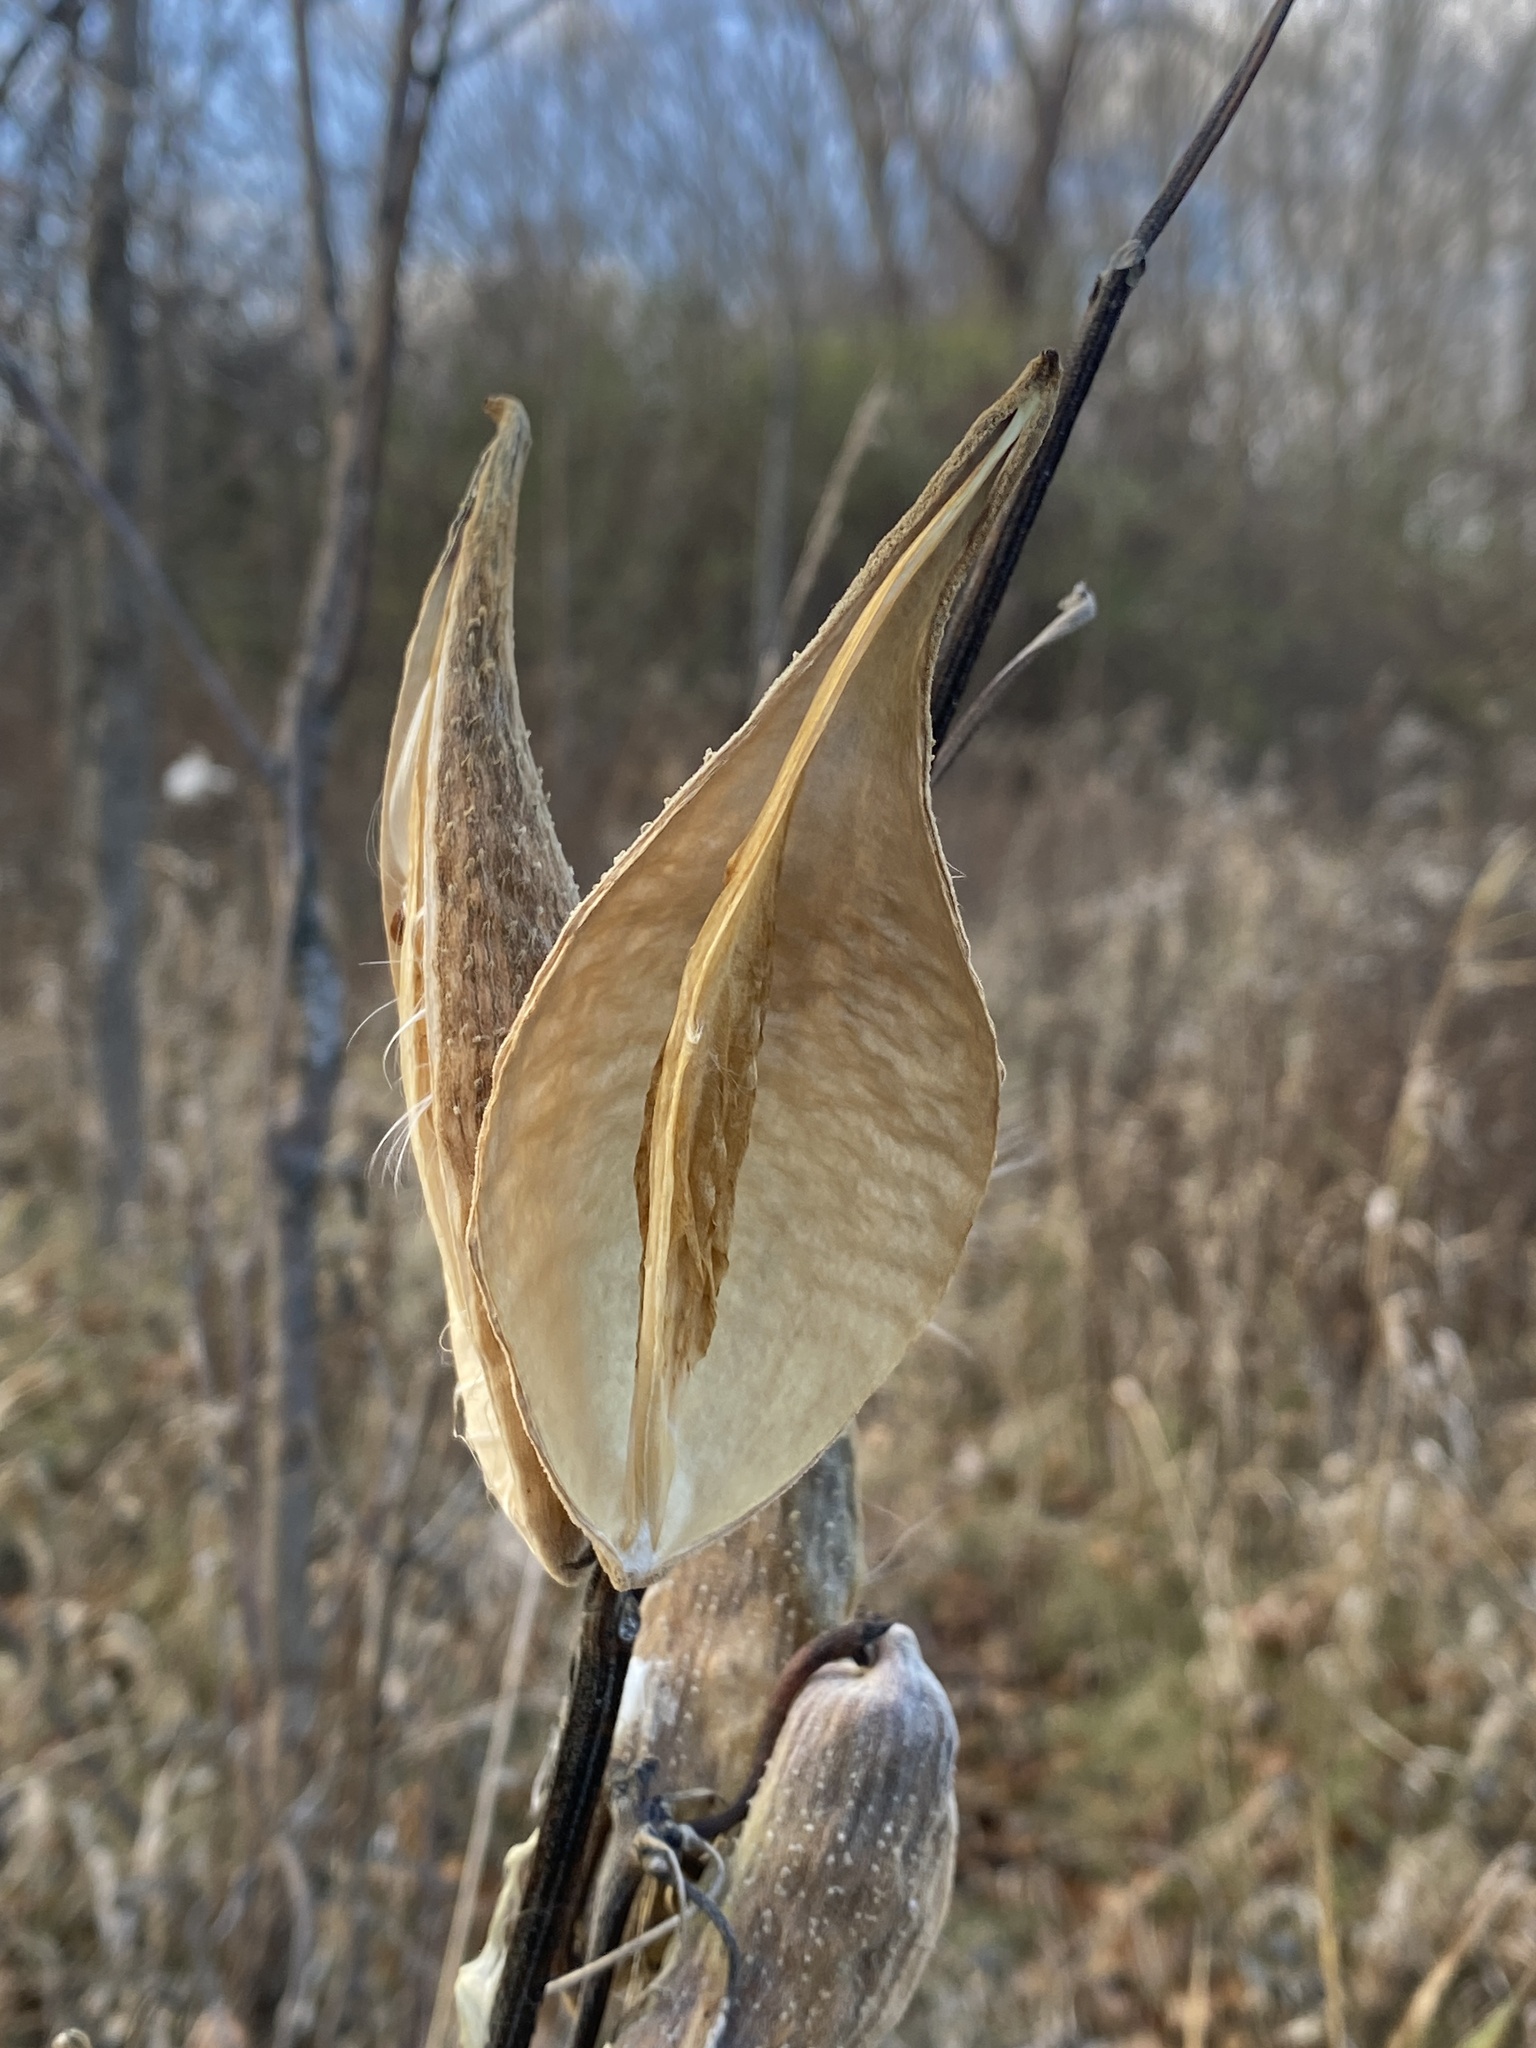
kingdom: Plantae
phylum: Tracheophyta
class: Magnoliopsida
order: Gentianales
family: Apocynaceae
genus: Asclepias
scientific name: Asclepias syriaca
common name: Common milkweed
